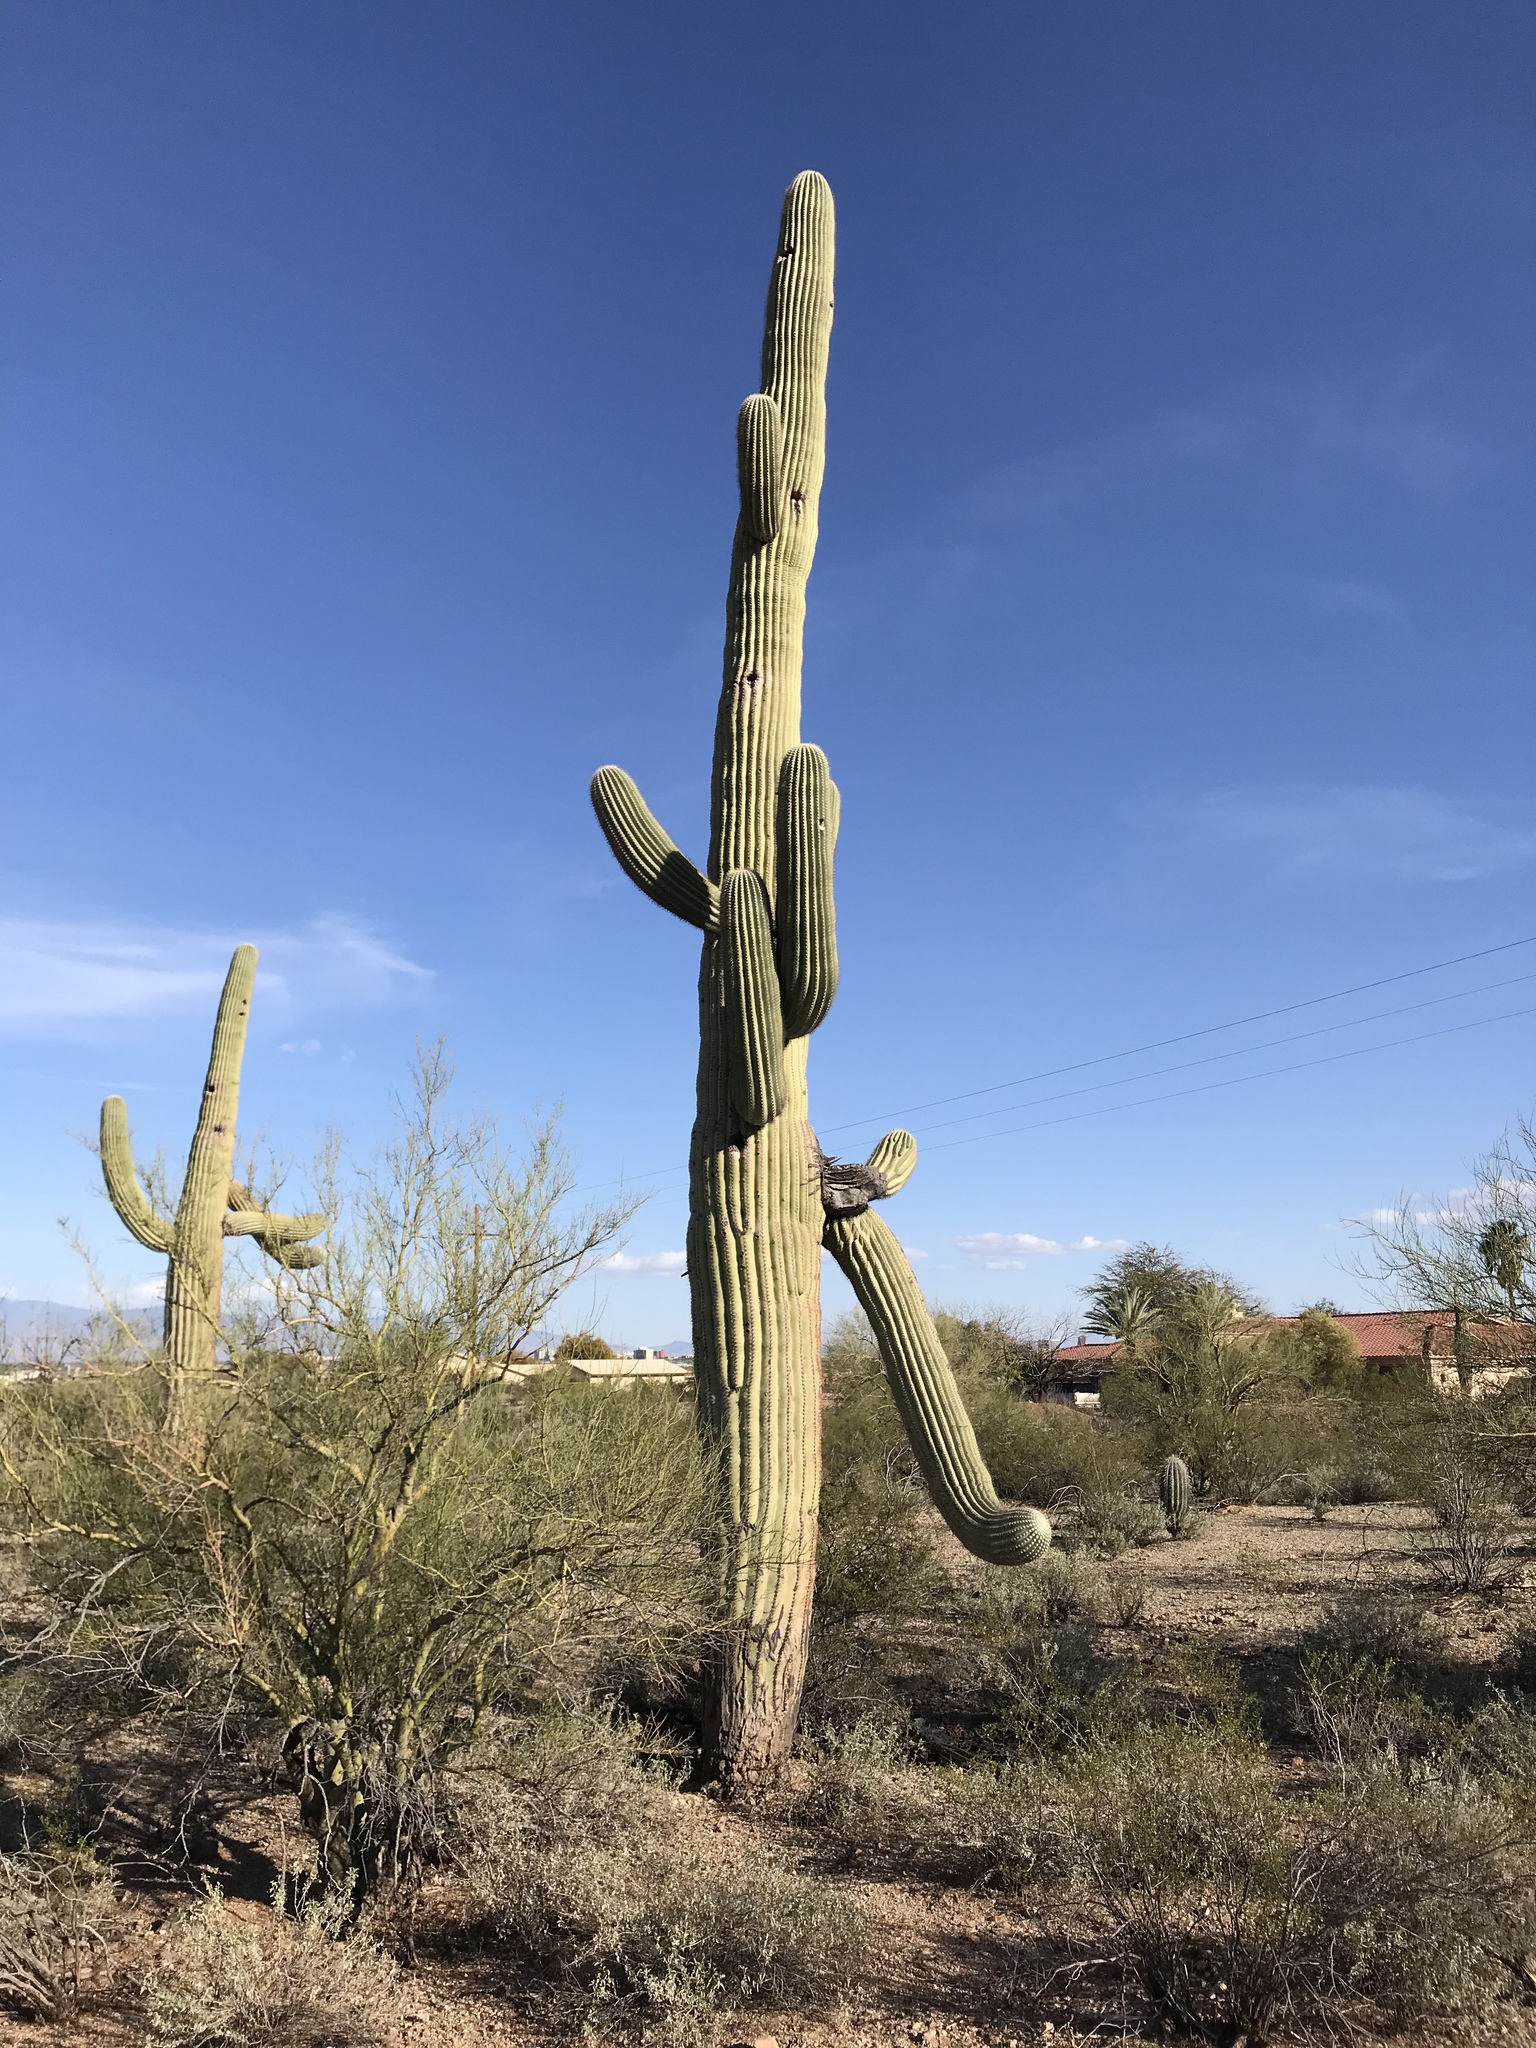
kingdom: Plantae
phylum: Tracheophyta
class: Magnoliopsida
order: Caryophyllales
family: Cactaceae
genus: Carnegiea
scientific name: Carnegiea gigantea
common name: Saguaro
